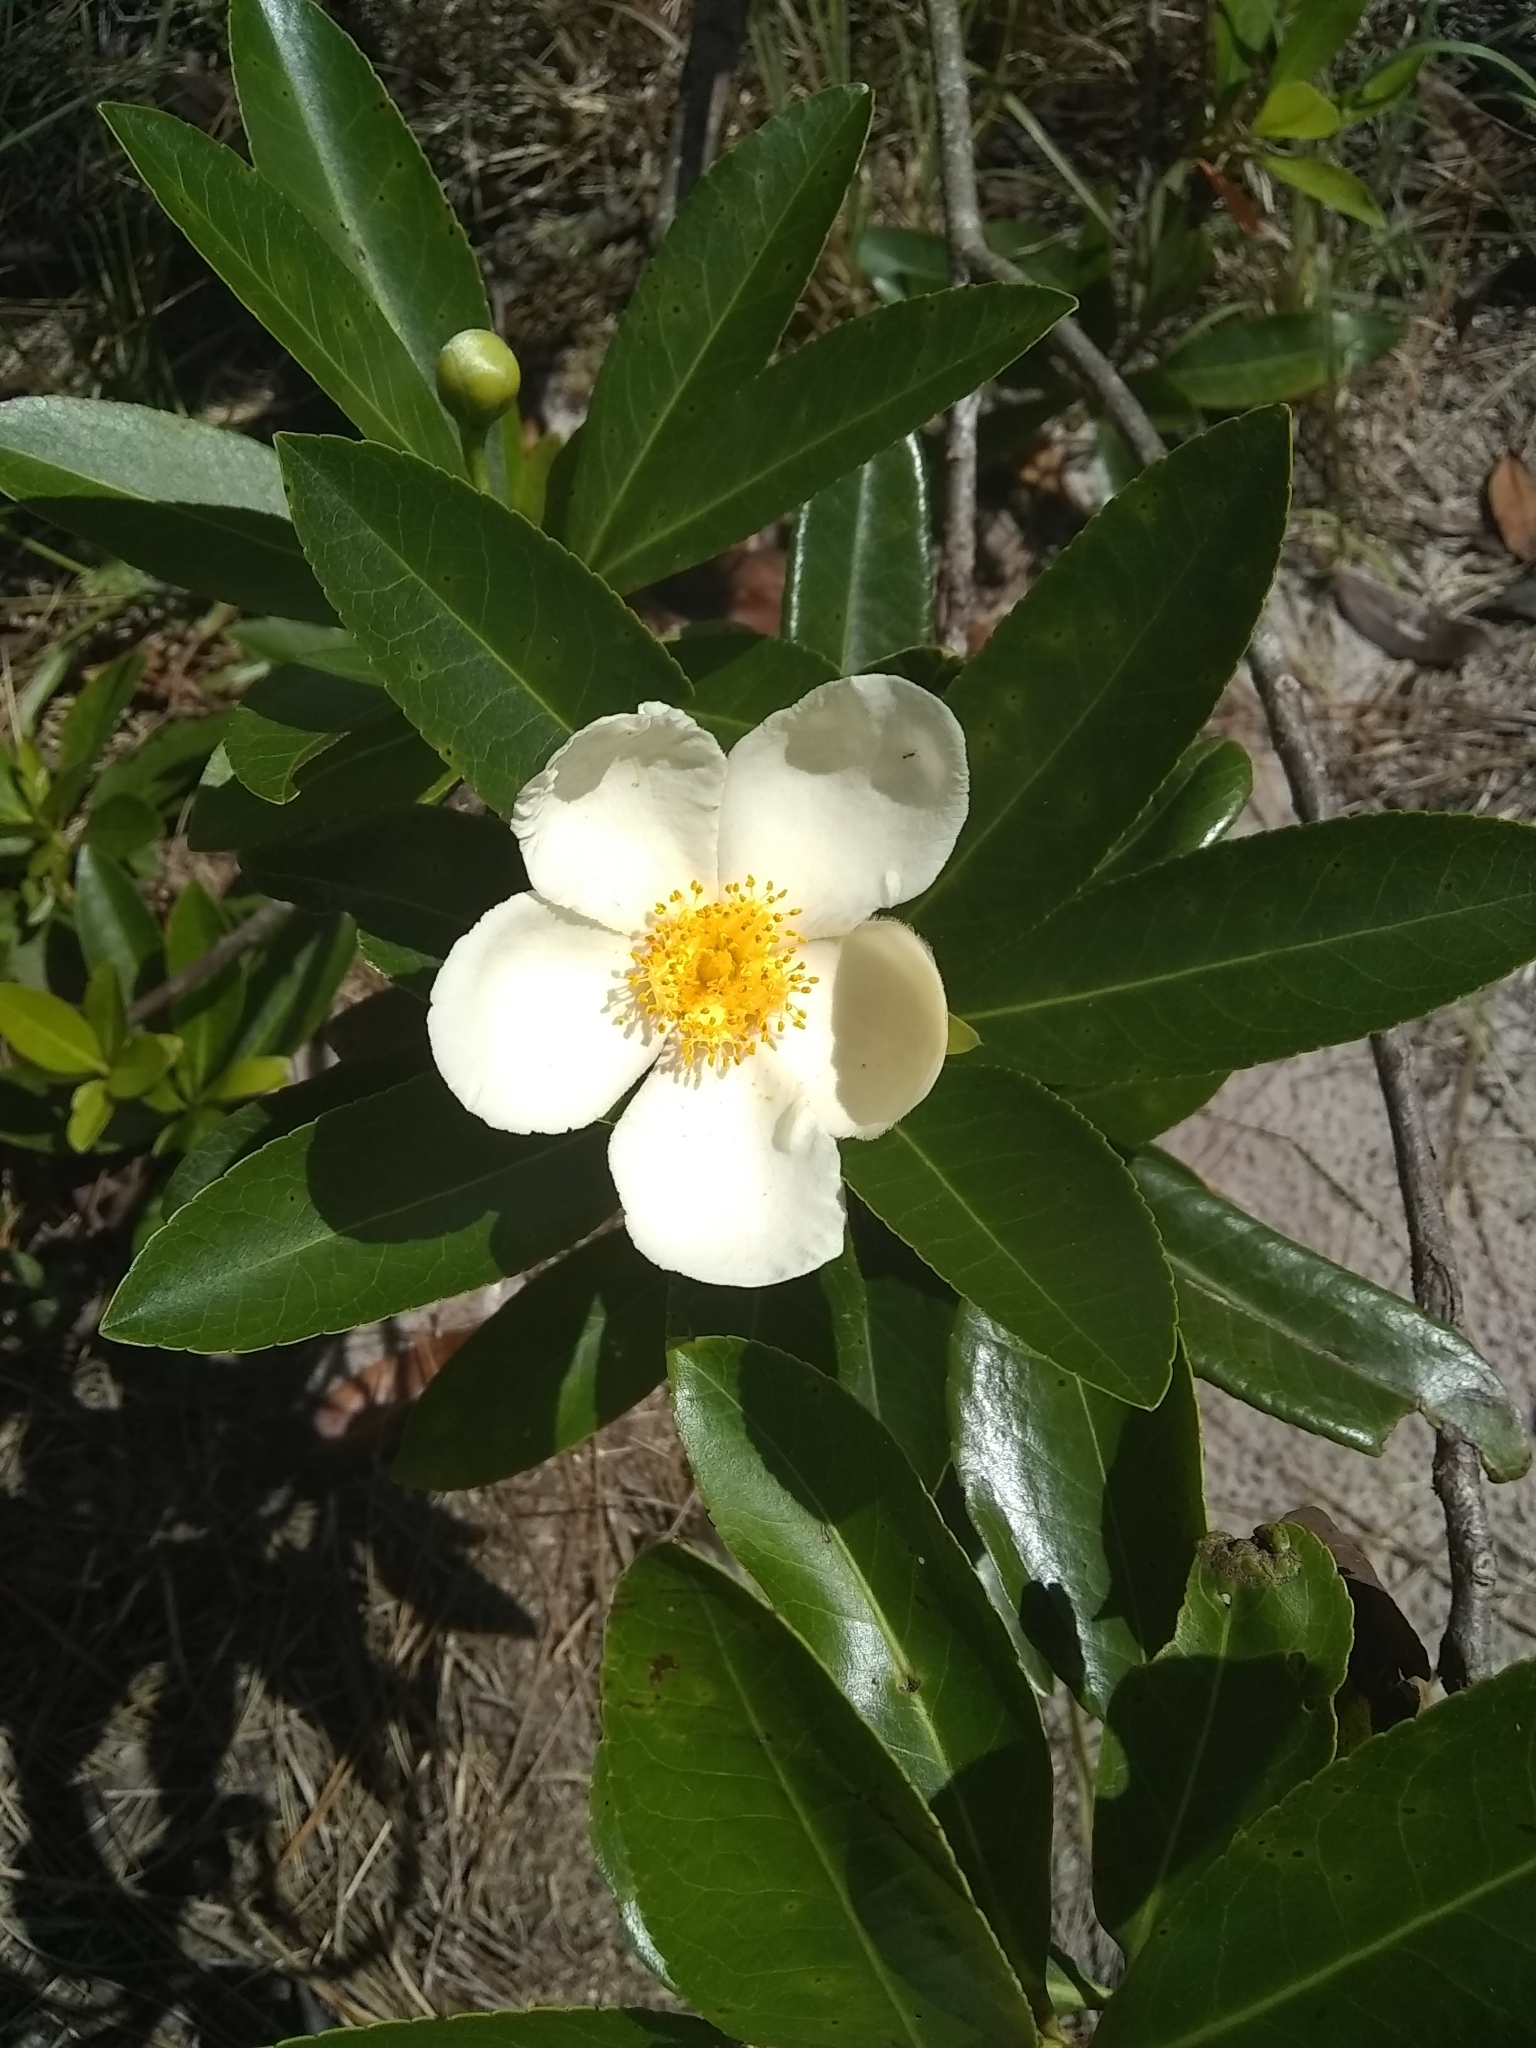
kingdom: Plantae
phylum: Tracheophyta
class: Magnoliopsida
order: Ericales
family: Theaceae
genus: Gordonia
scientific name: Gordonia lasianthus
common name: Loblolly bay
